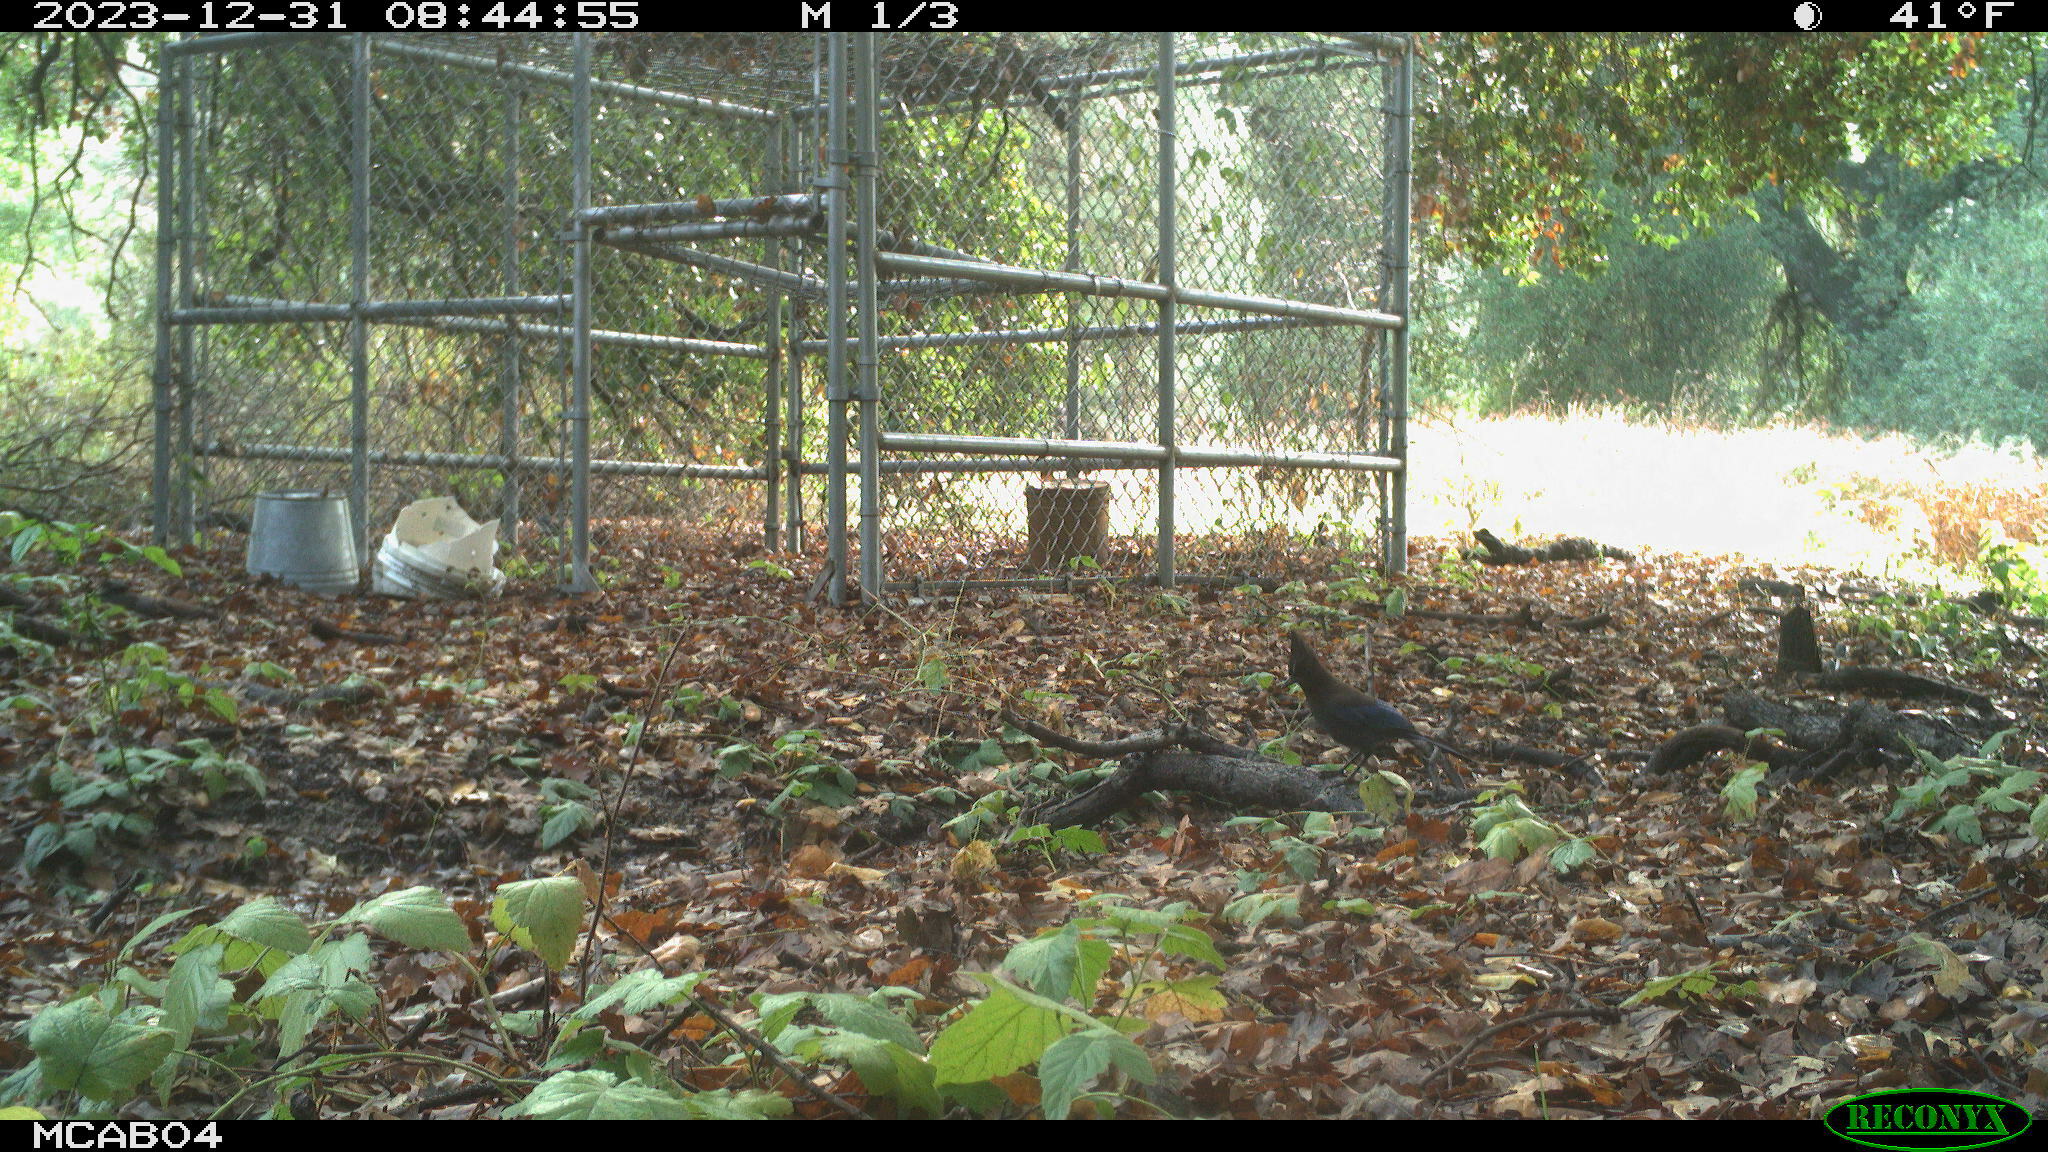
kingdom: Animalia
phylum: Chordata
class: Aves
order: Passeriformes
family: Corvidae
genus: Cyanocitta
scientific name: Cyanocitta stelleri
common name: Steller's jay
